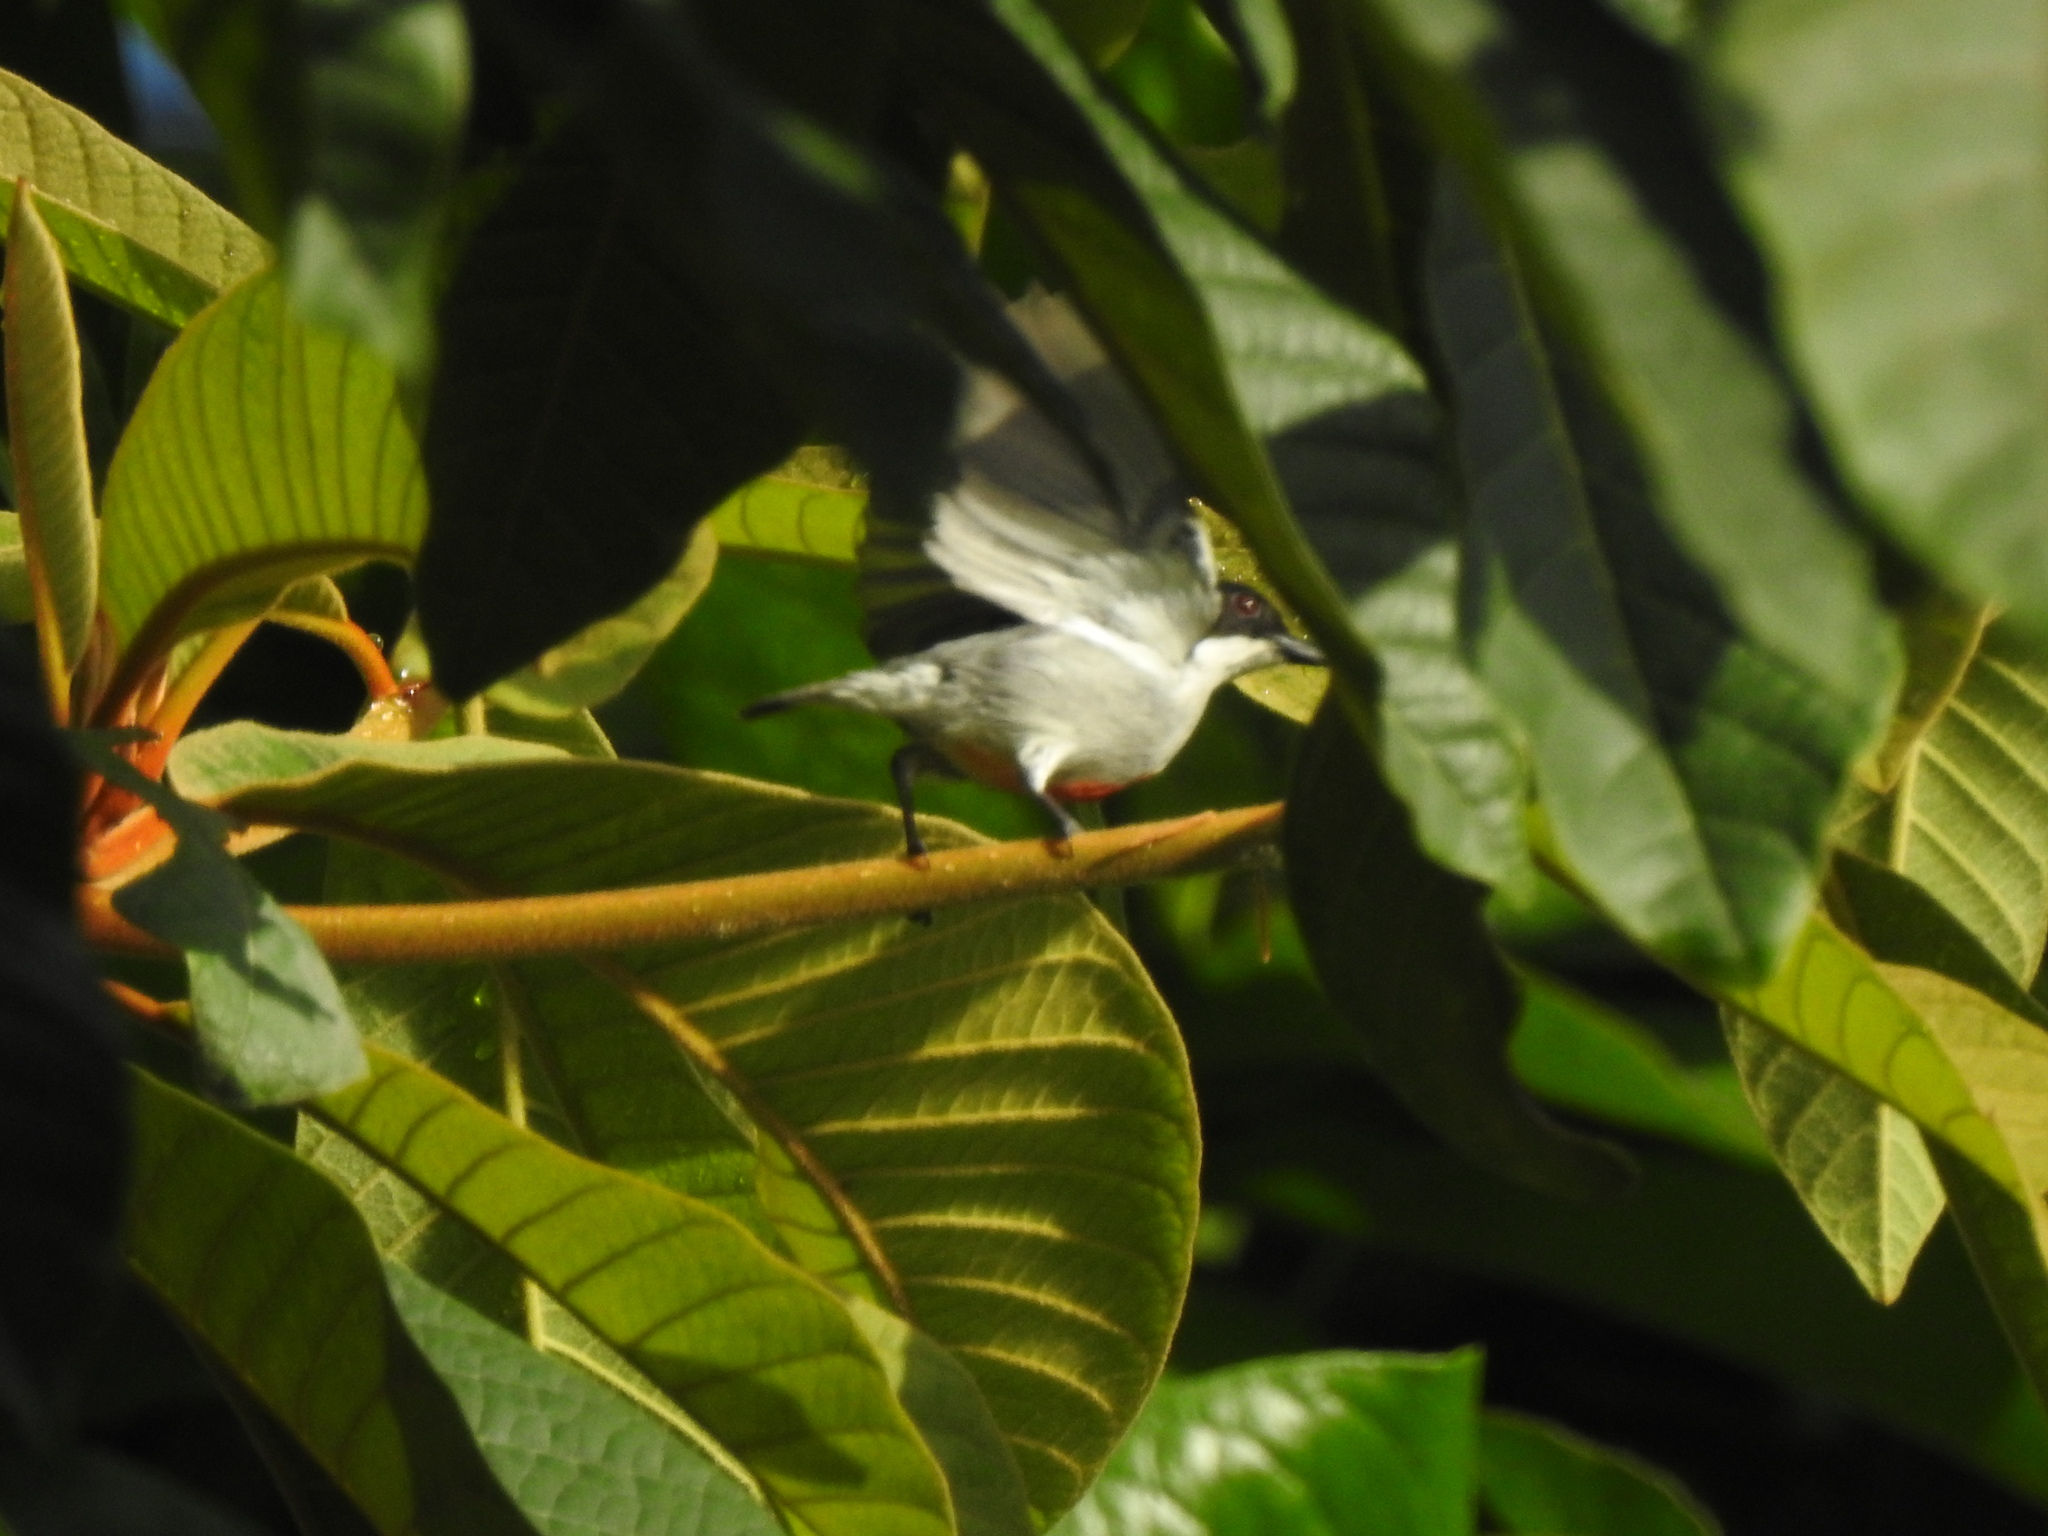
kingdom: Animalia
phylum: Chordata
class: Aves
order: Passeriformes
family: Dicaeidae
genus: Dicaeum
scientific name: Dicaeum australe
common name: Red-keeled flowerpecker
